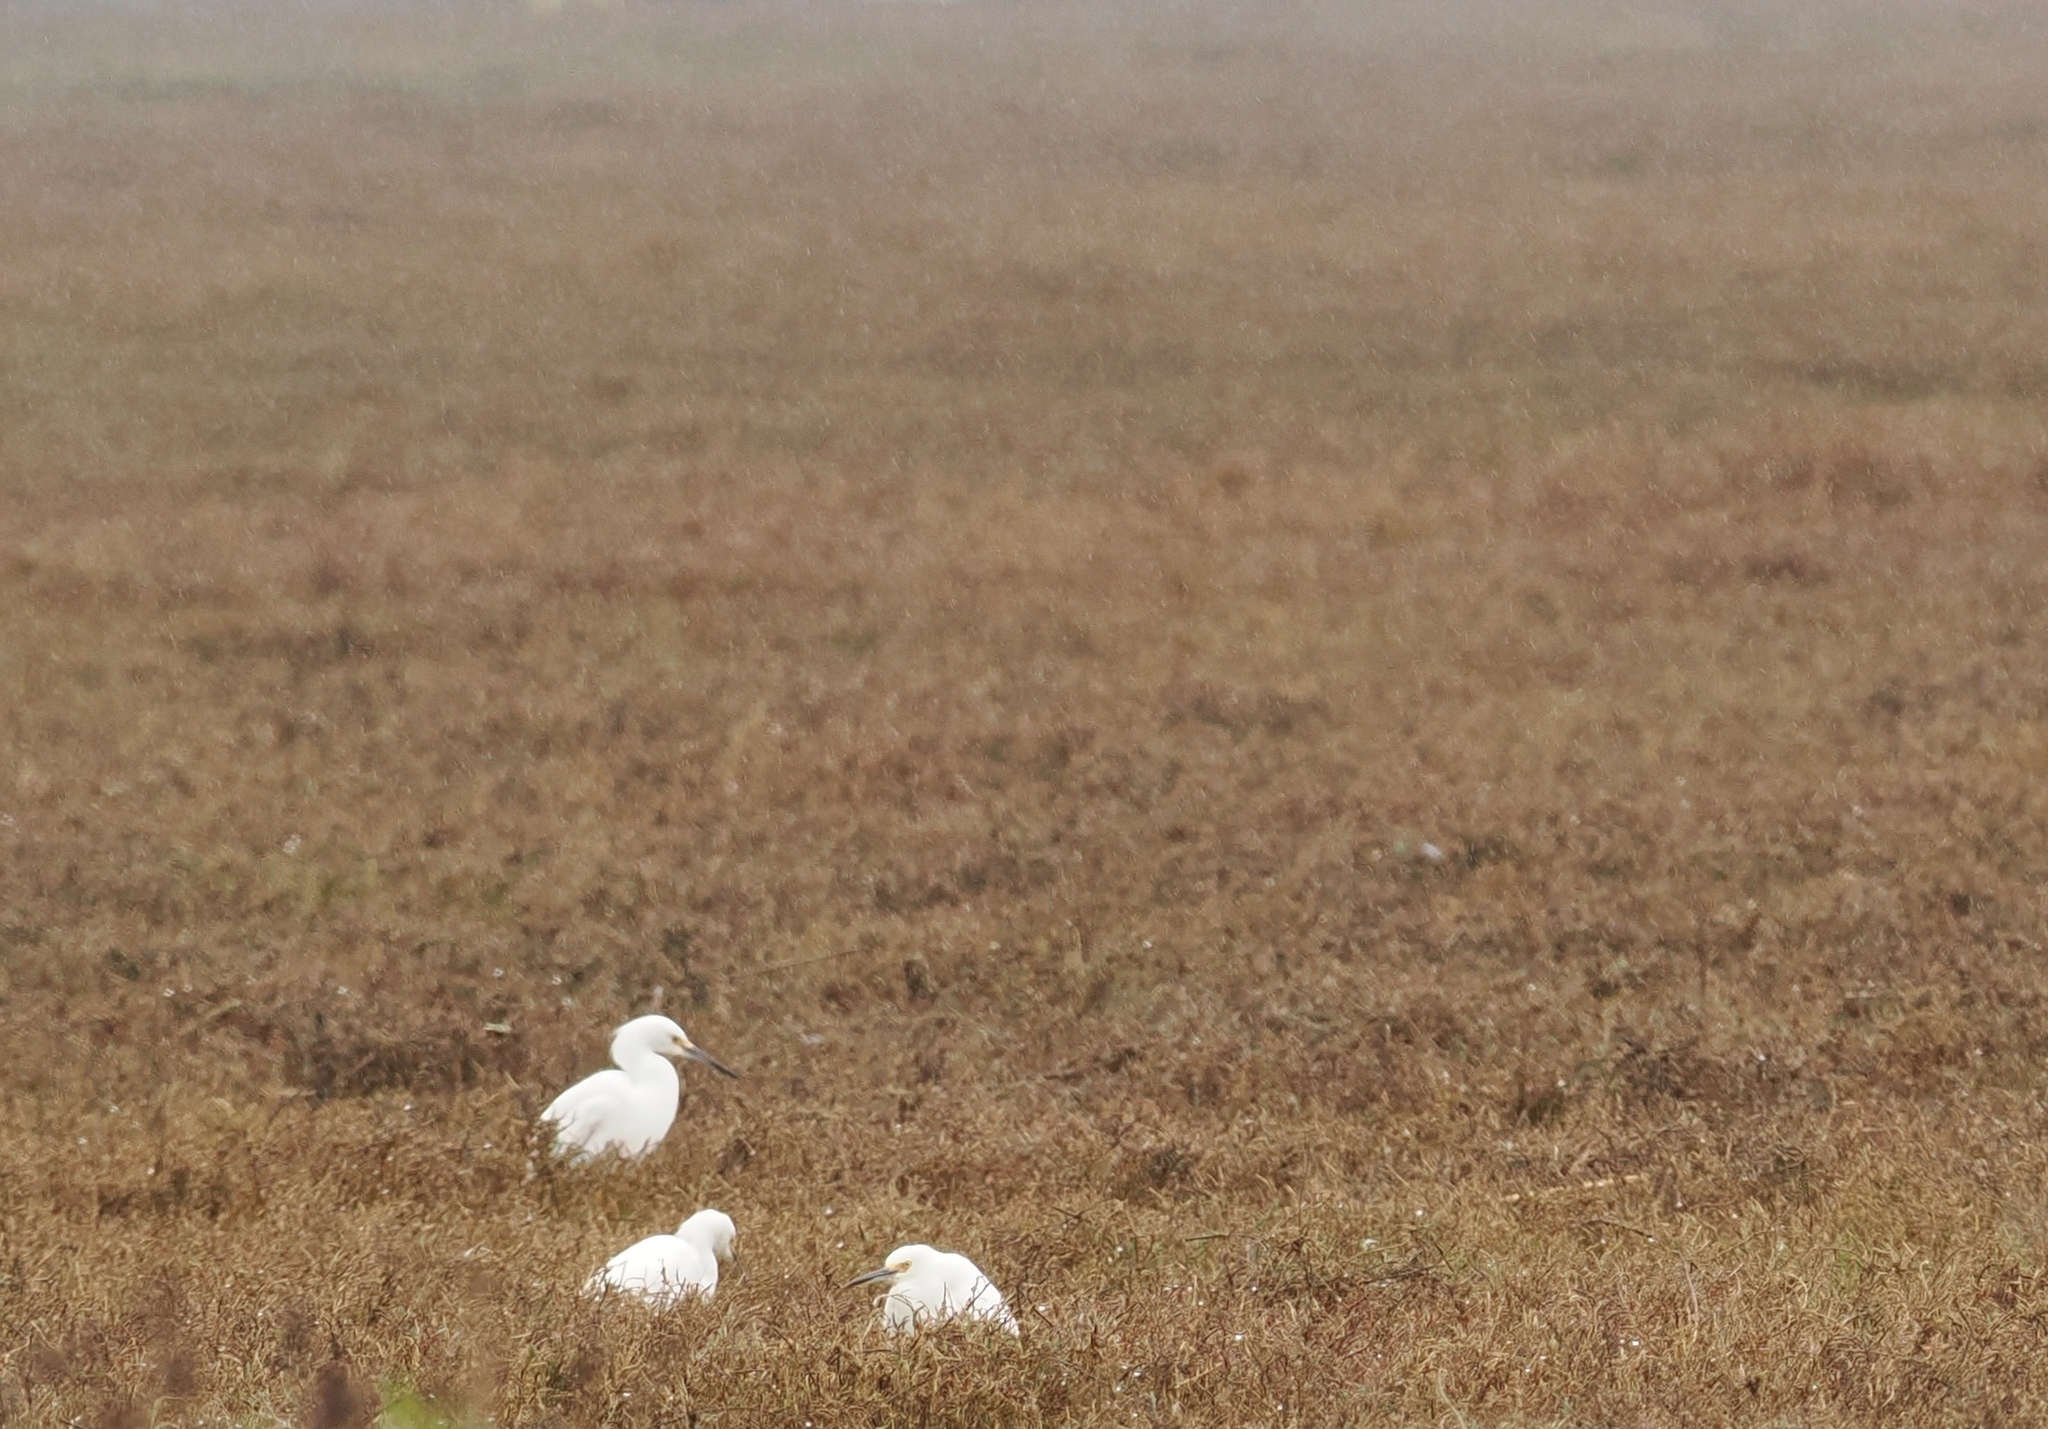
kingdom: Animalia
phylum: Chordata
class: Aves
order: Pelecaniformes
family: Ardeidae
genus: Egretta
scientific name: Egretta thula
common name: Snowy egret
